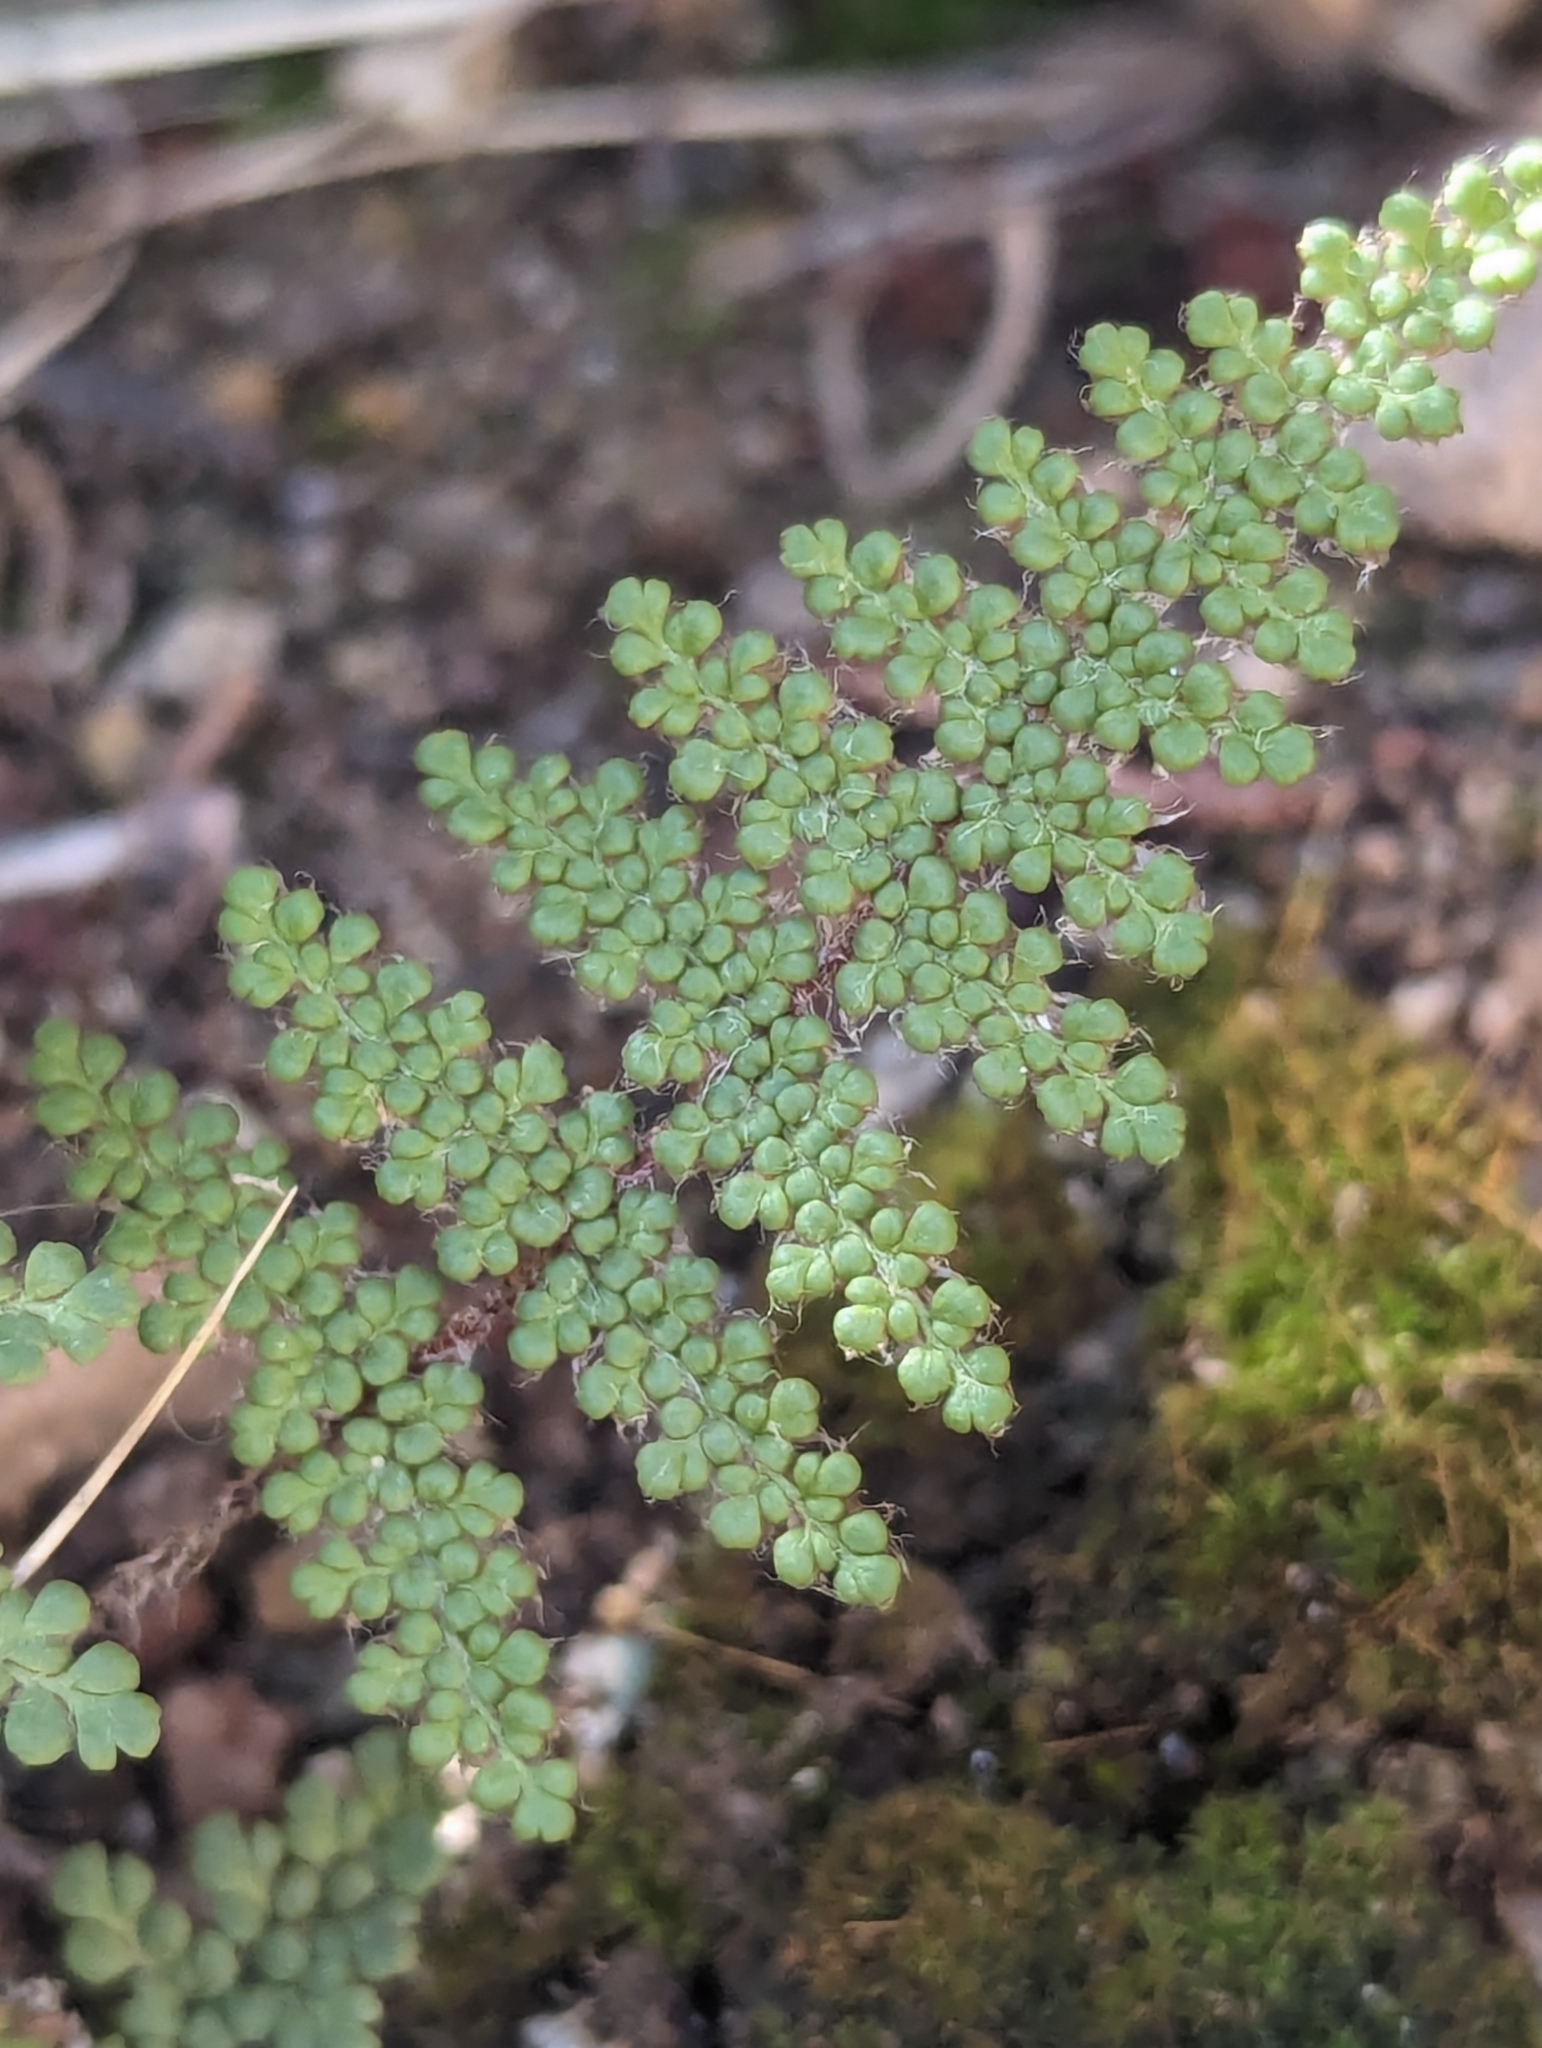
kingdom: Plantae
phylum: Tracheophyta
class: Polypodiopsida
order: Polypodiales
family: Pteridaceae
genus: Myriopteris
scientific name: Myriopteris fendleri
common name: Fendler's lip fern
